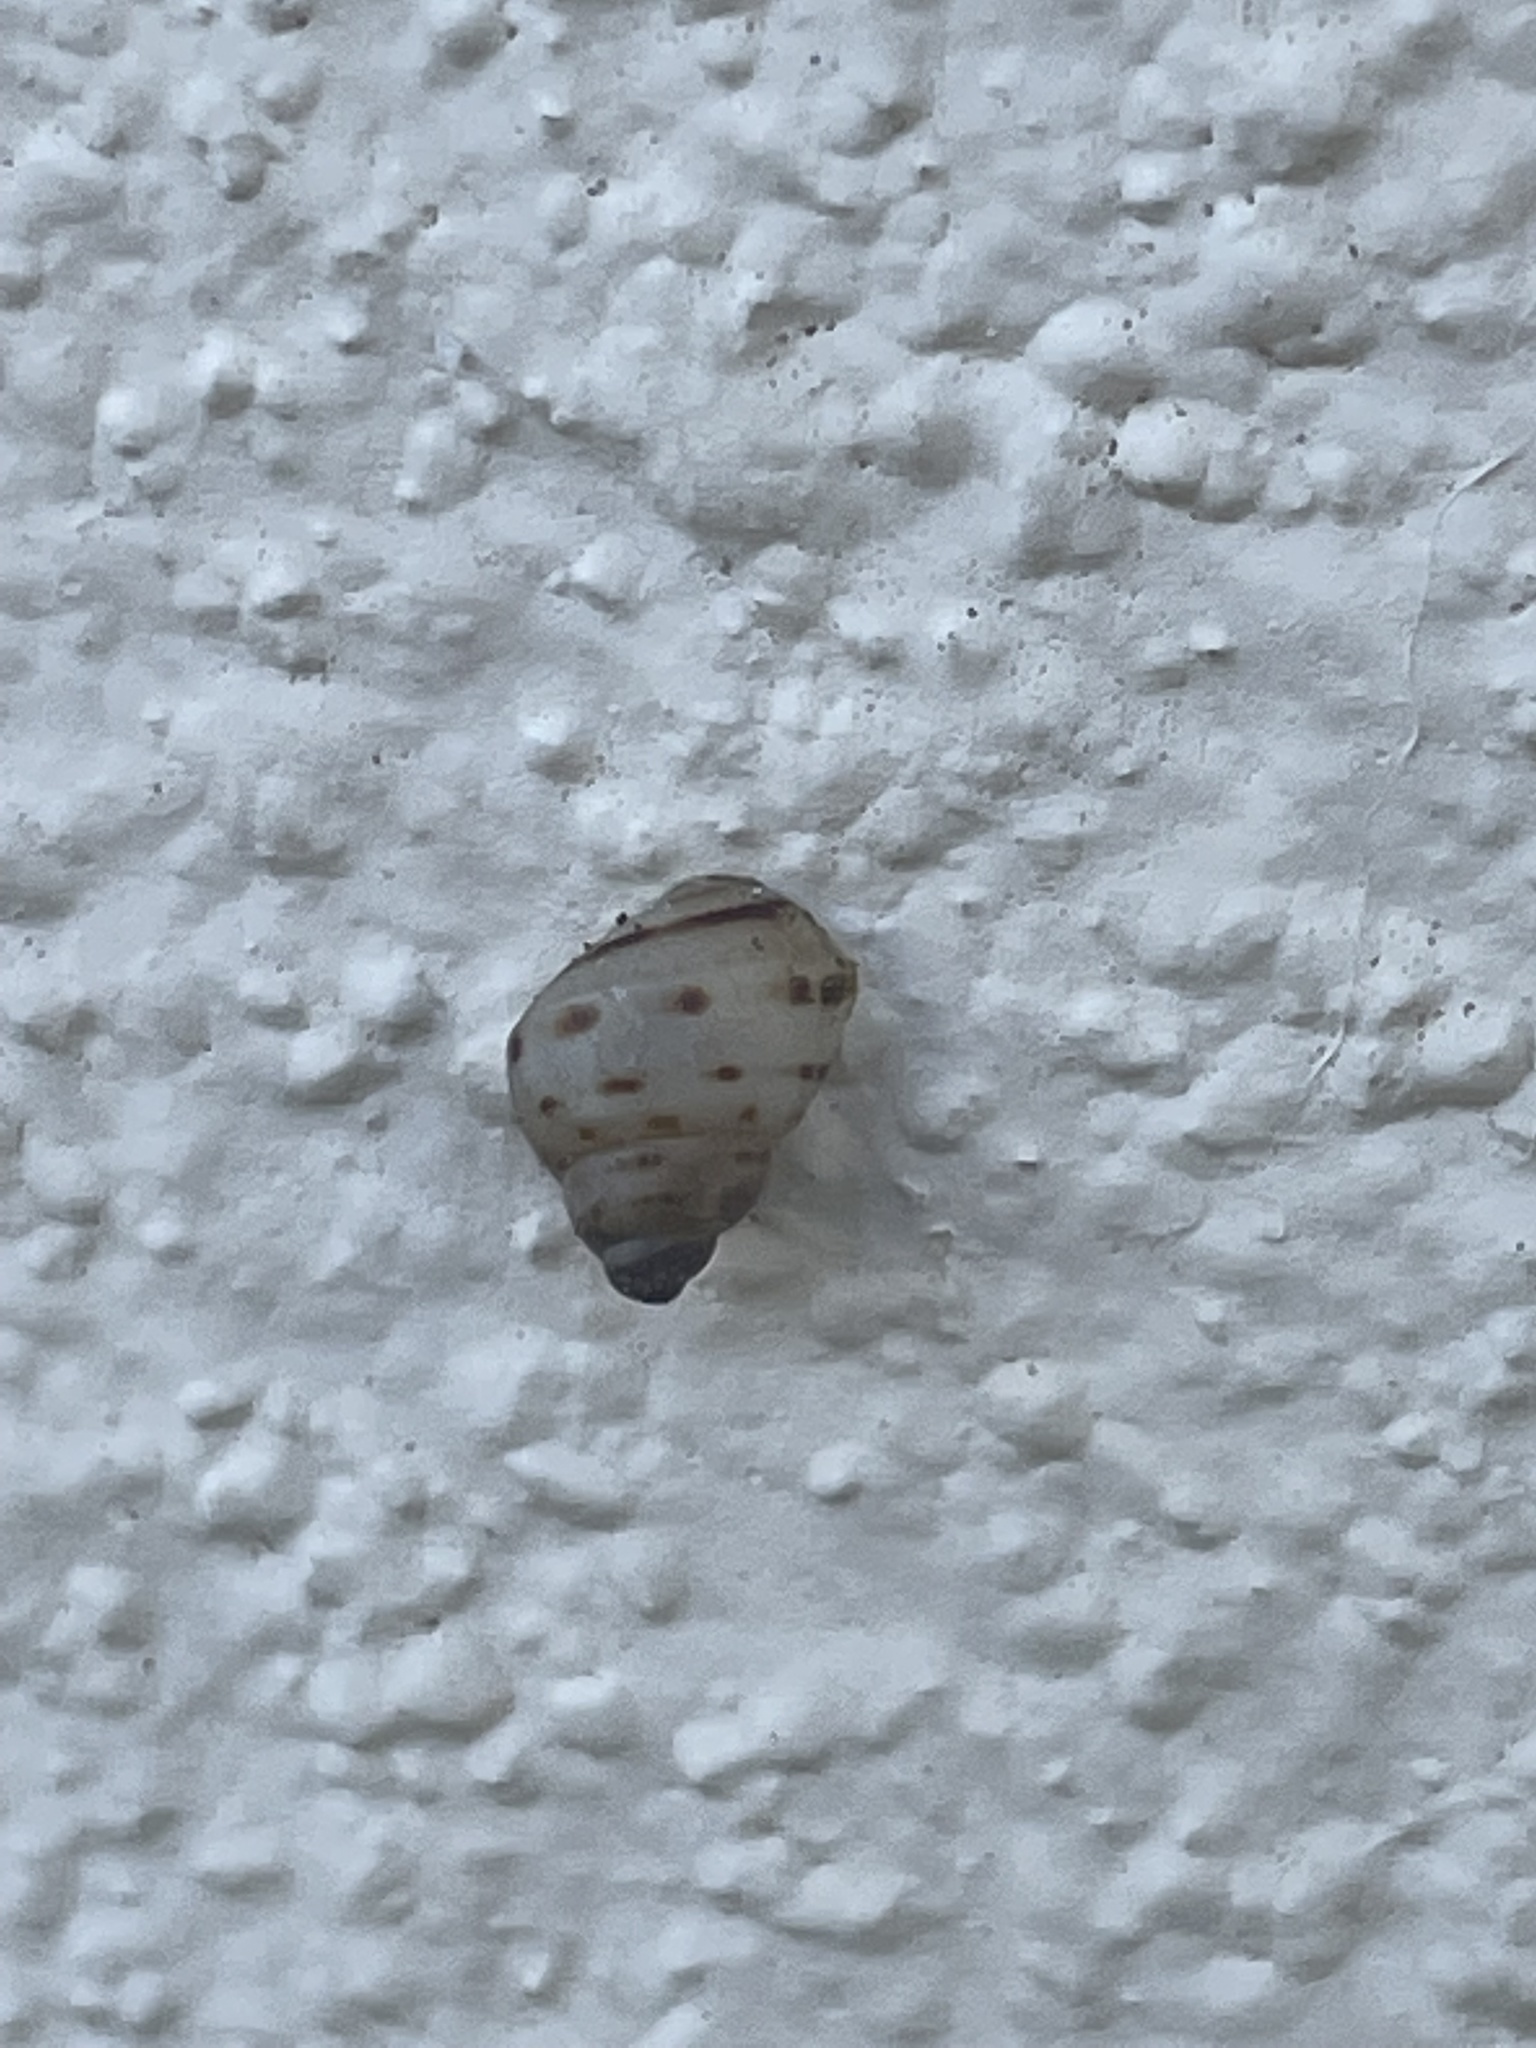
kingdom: Animalia
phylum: Mollusca
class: Gastropoda
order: Stylommatophora
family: Bulimulidae
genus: Drymaeus
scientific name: Drymaeus dormani
